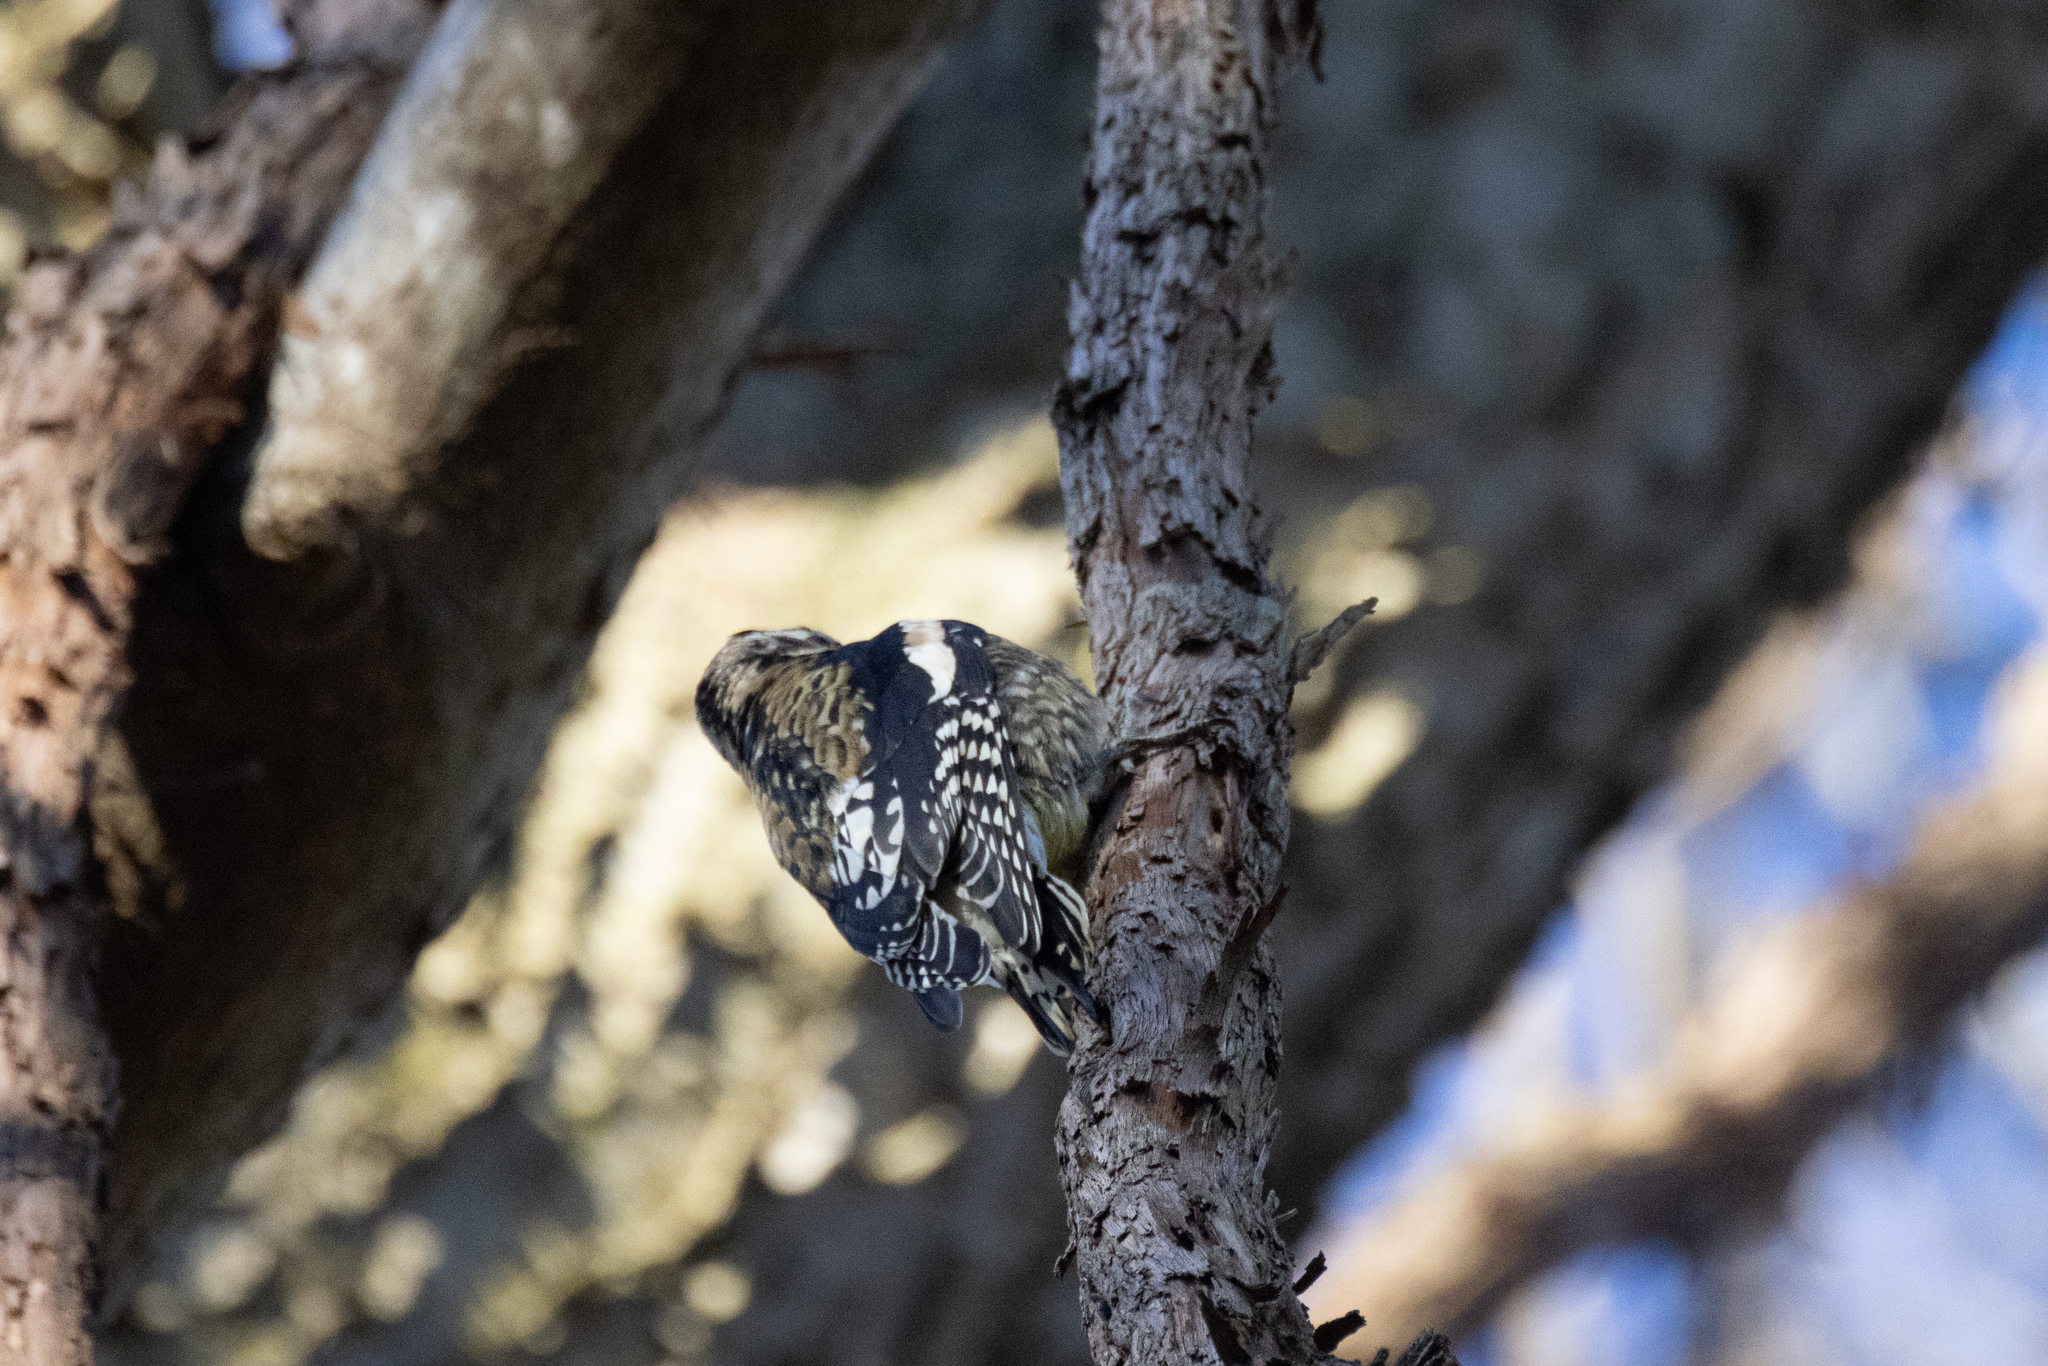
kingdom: Animalia
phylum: Chordata
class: Aves
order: Piciformes
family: Picidae
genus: Sphyrapicus
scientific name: Sphyrapicus varius
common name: Yellow-bellied sapsucker
